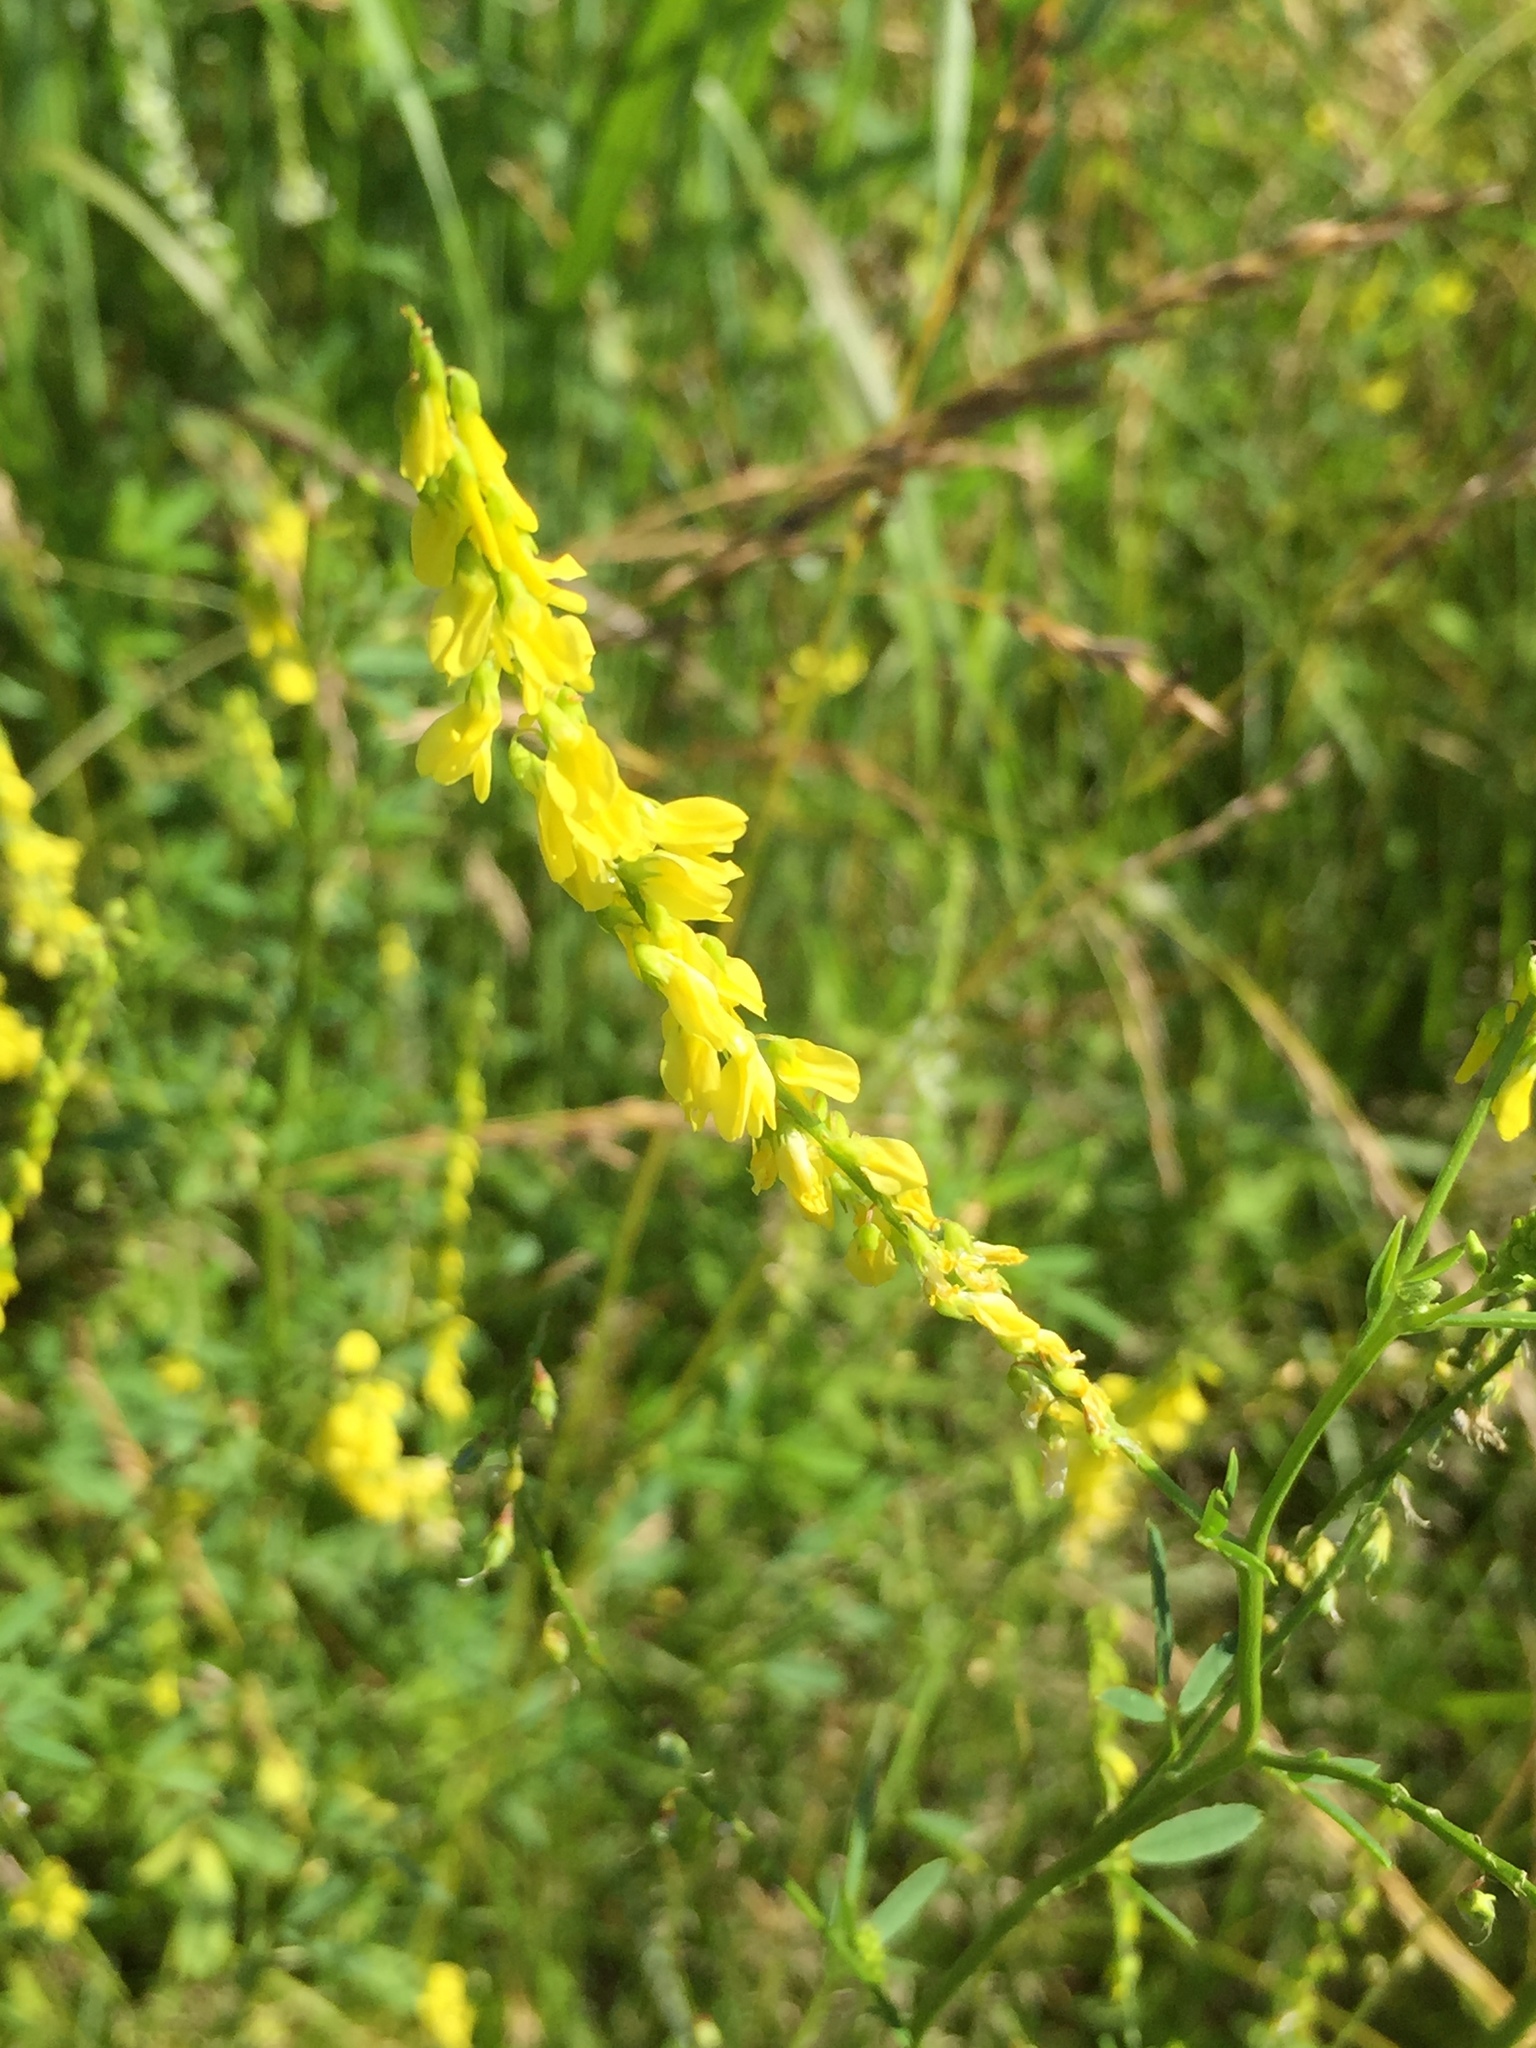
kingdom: Plantae
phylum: Tracheophyta
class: Magnoliopsida
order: Fabales
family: Fabaceae
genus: Melilotus
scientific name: Melilotus officinalis
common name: Sweetclover
